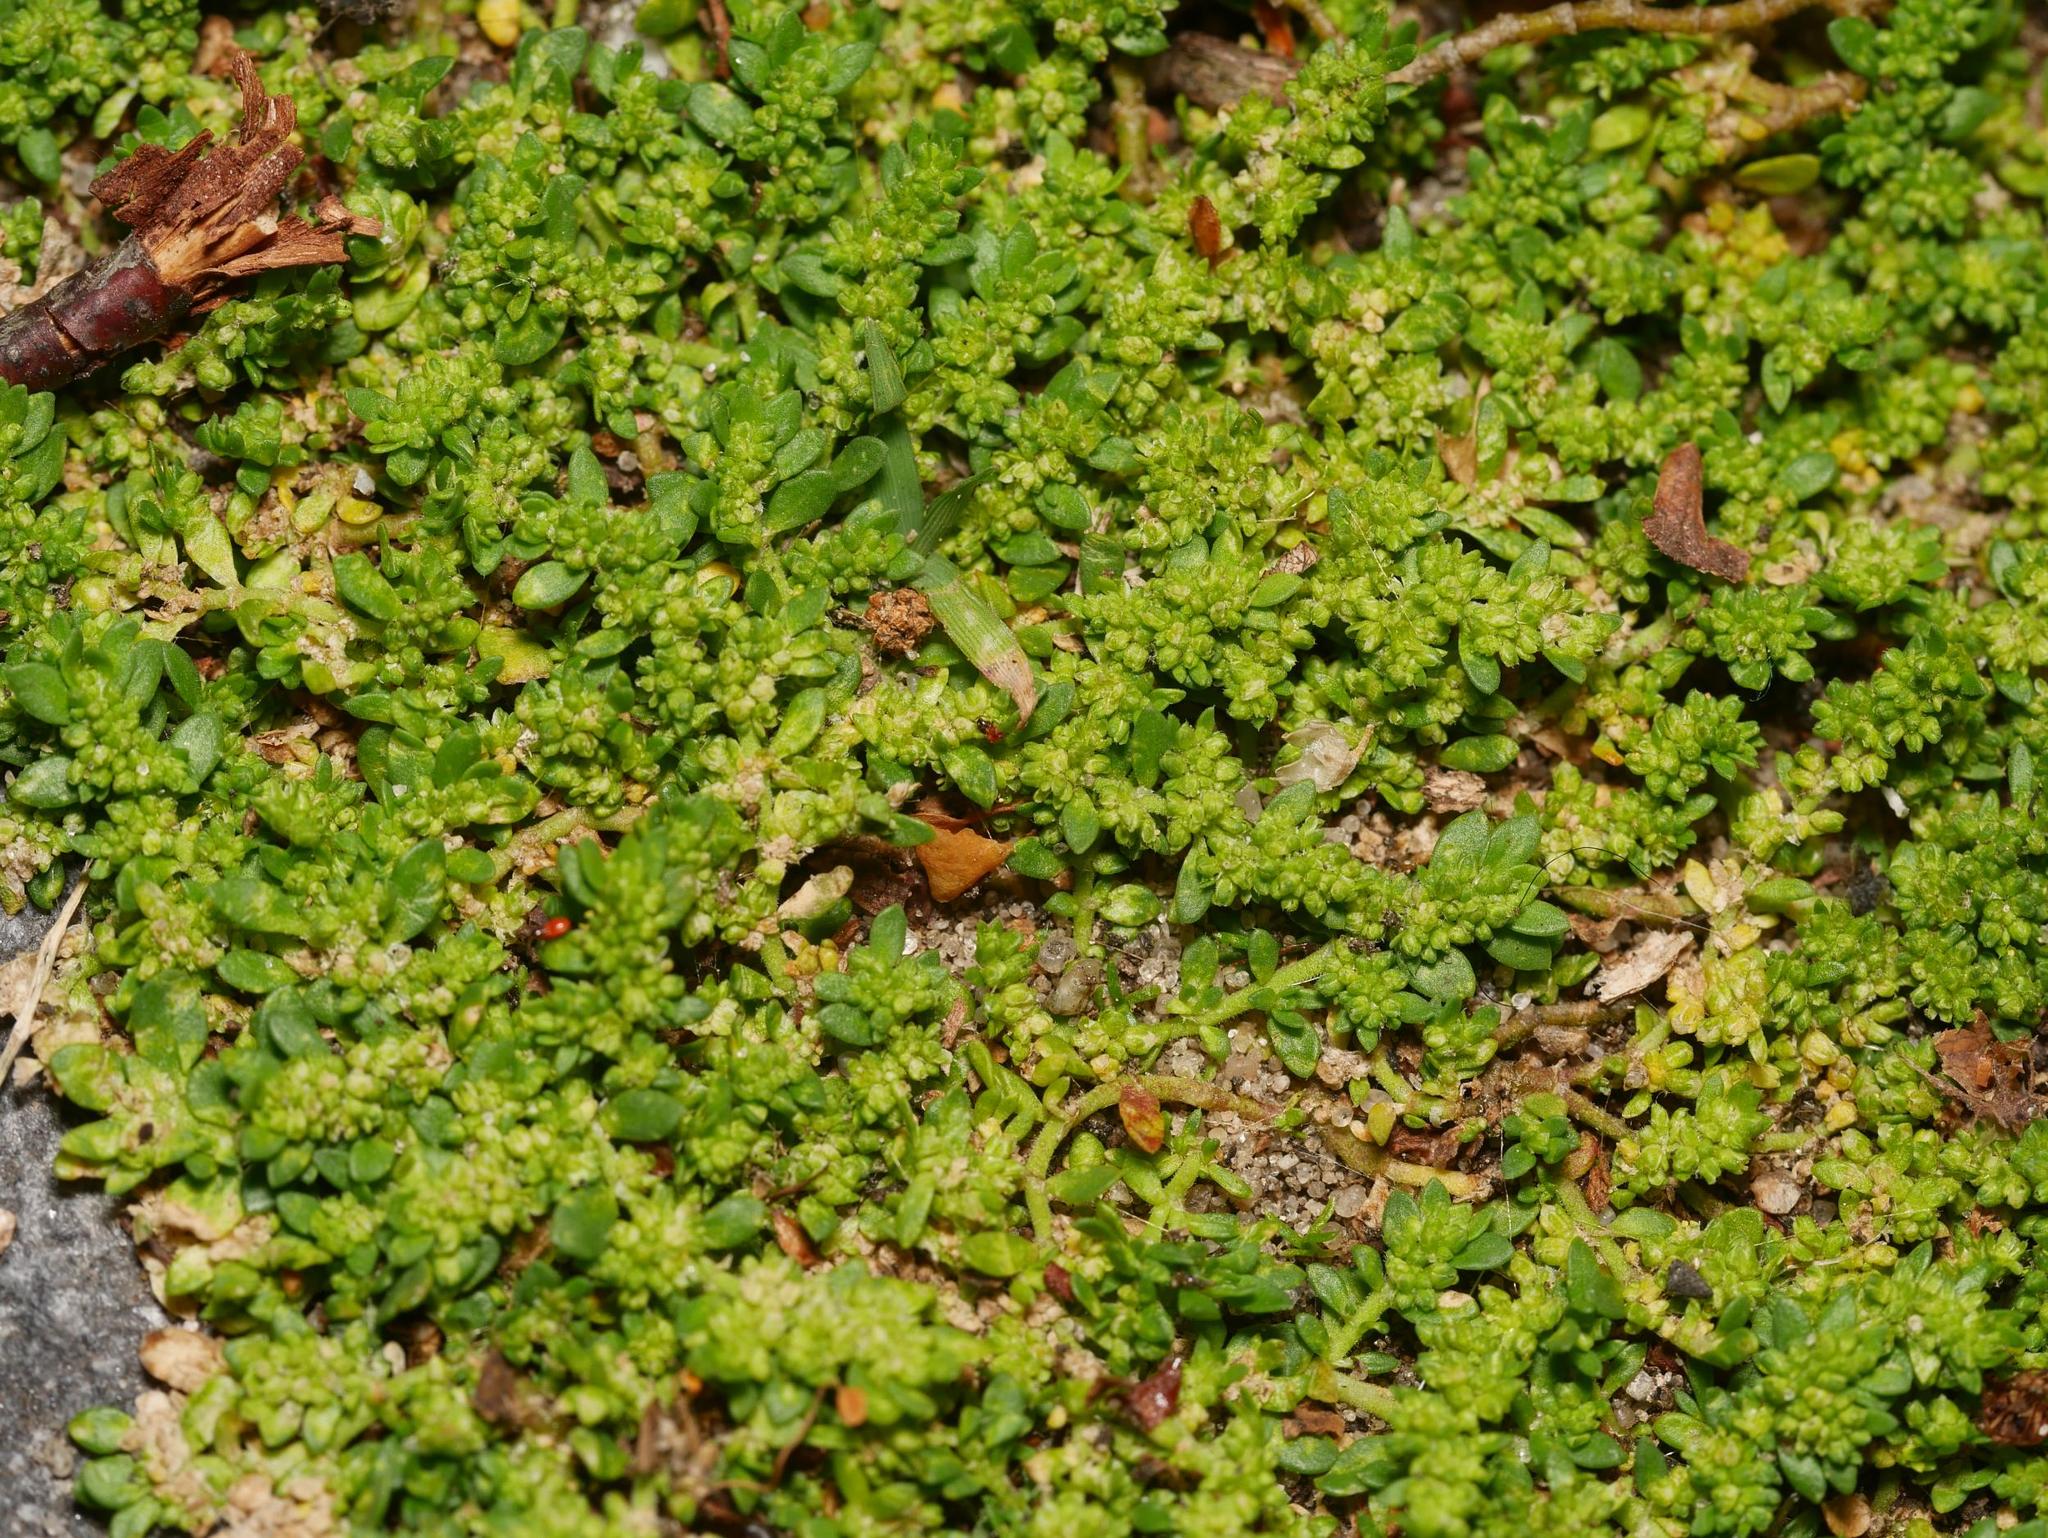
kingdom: Plantae
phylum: Tracheophyta
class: Magnoliopsida
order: Caryophyllales
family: Caryophyllaceae
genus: Herniaria
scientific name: Herniaria glabra
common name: Smooth rupturewort
